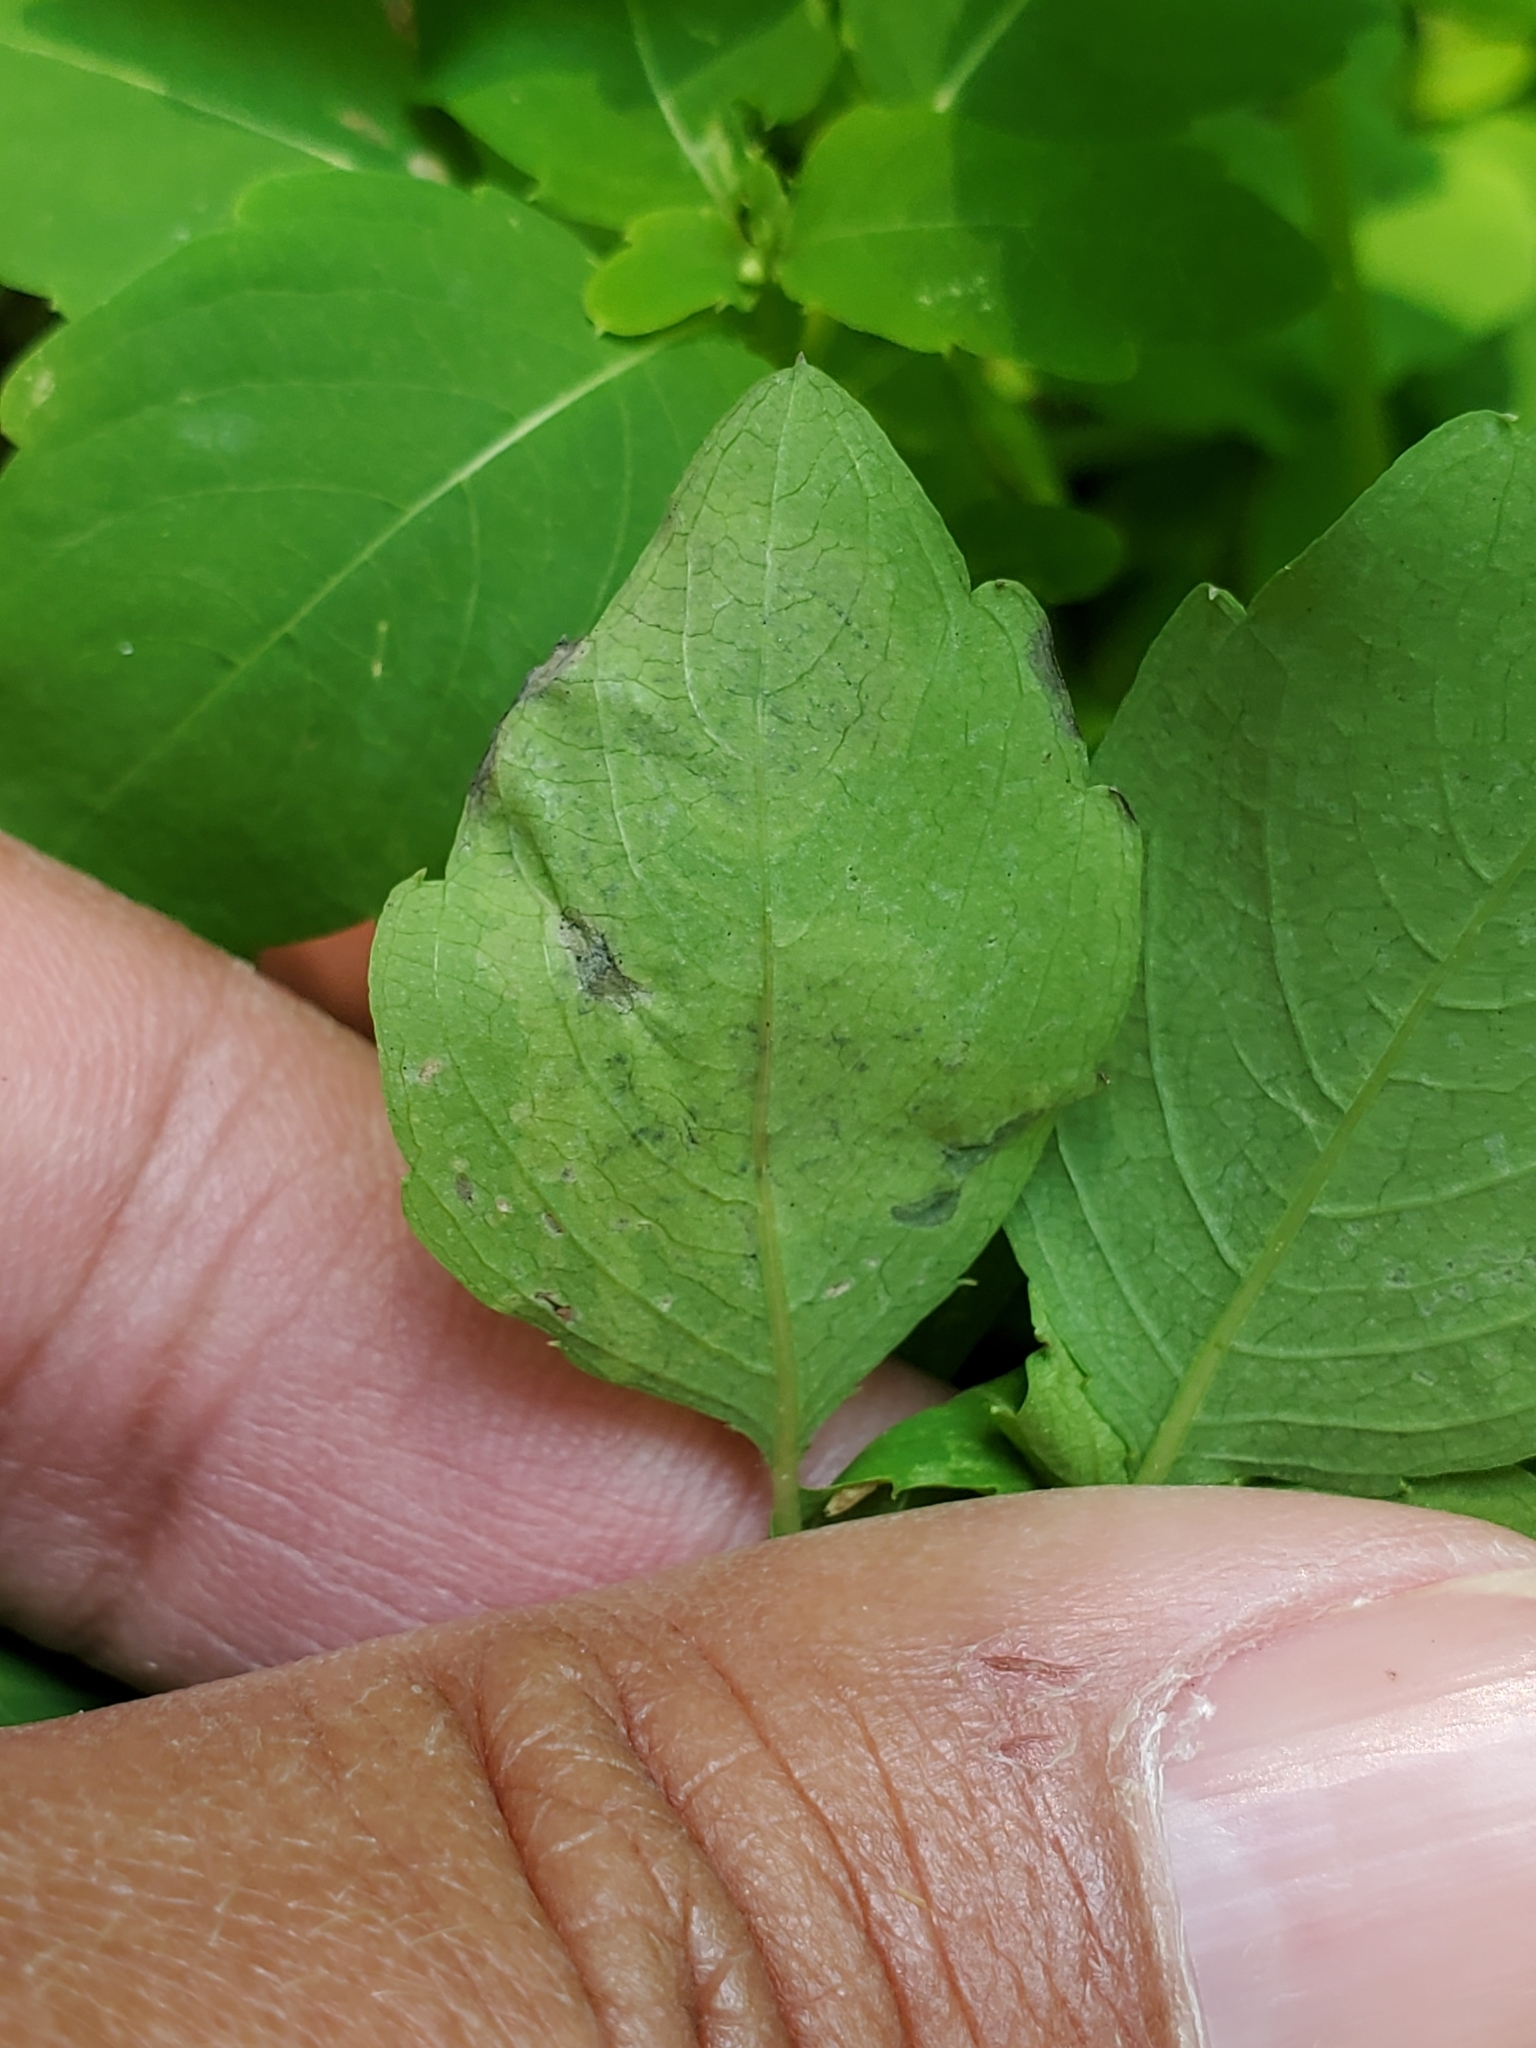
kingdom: Animalia
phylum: Arthropoda
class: Insecta
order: Diptera
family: Agromyzidae
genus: Phytoliriomyza
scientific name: Phytoliriomyza melampyga
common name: Jewelweed leaf-miner fly
